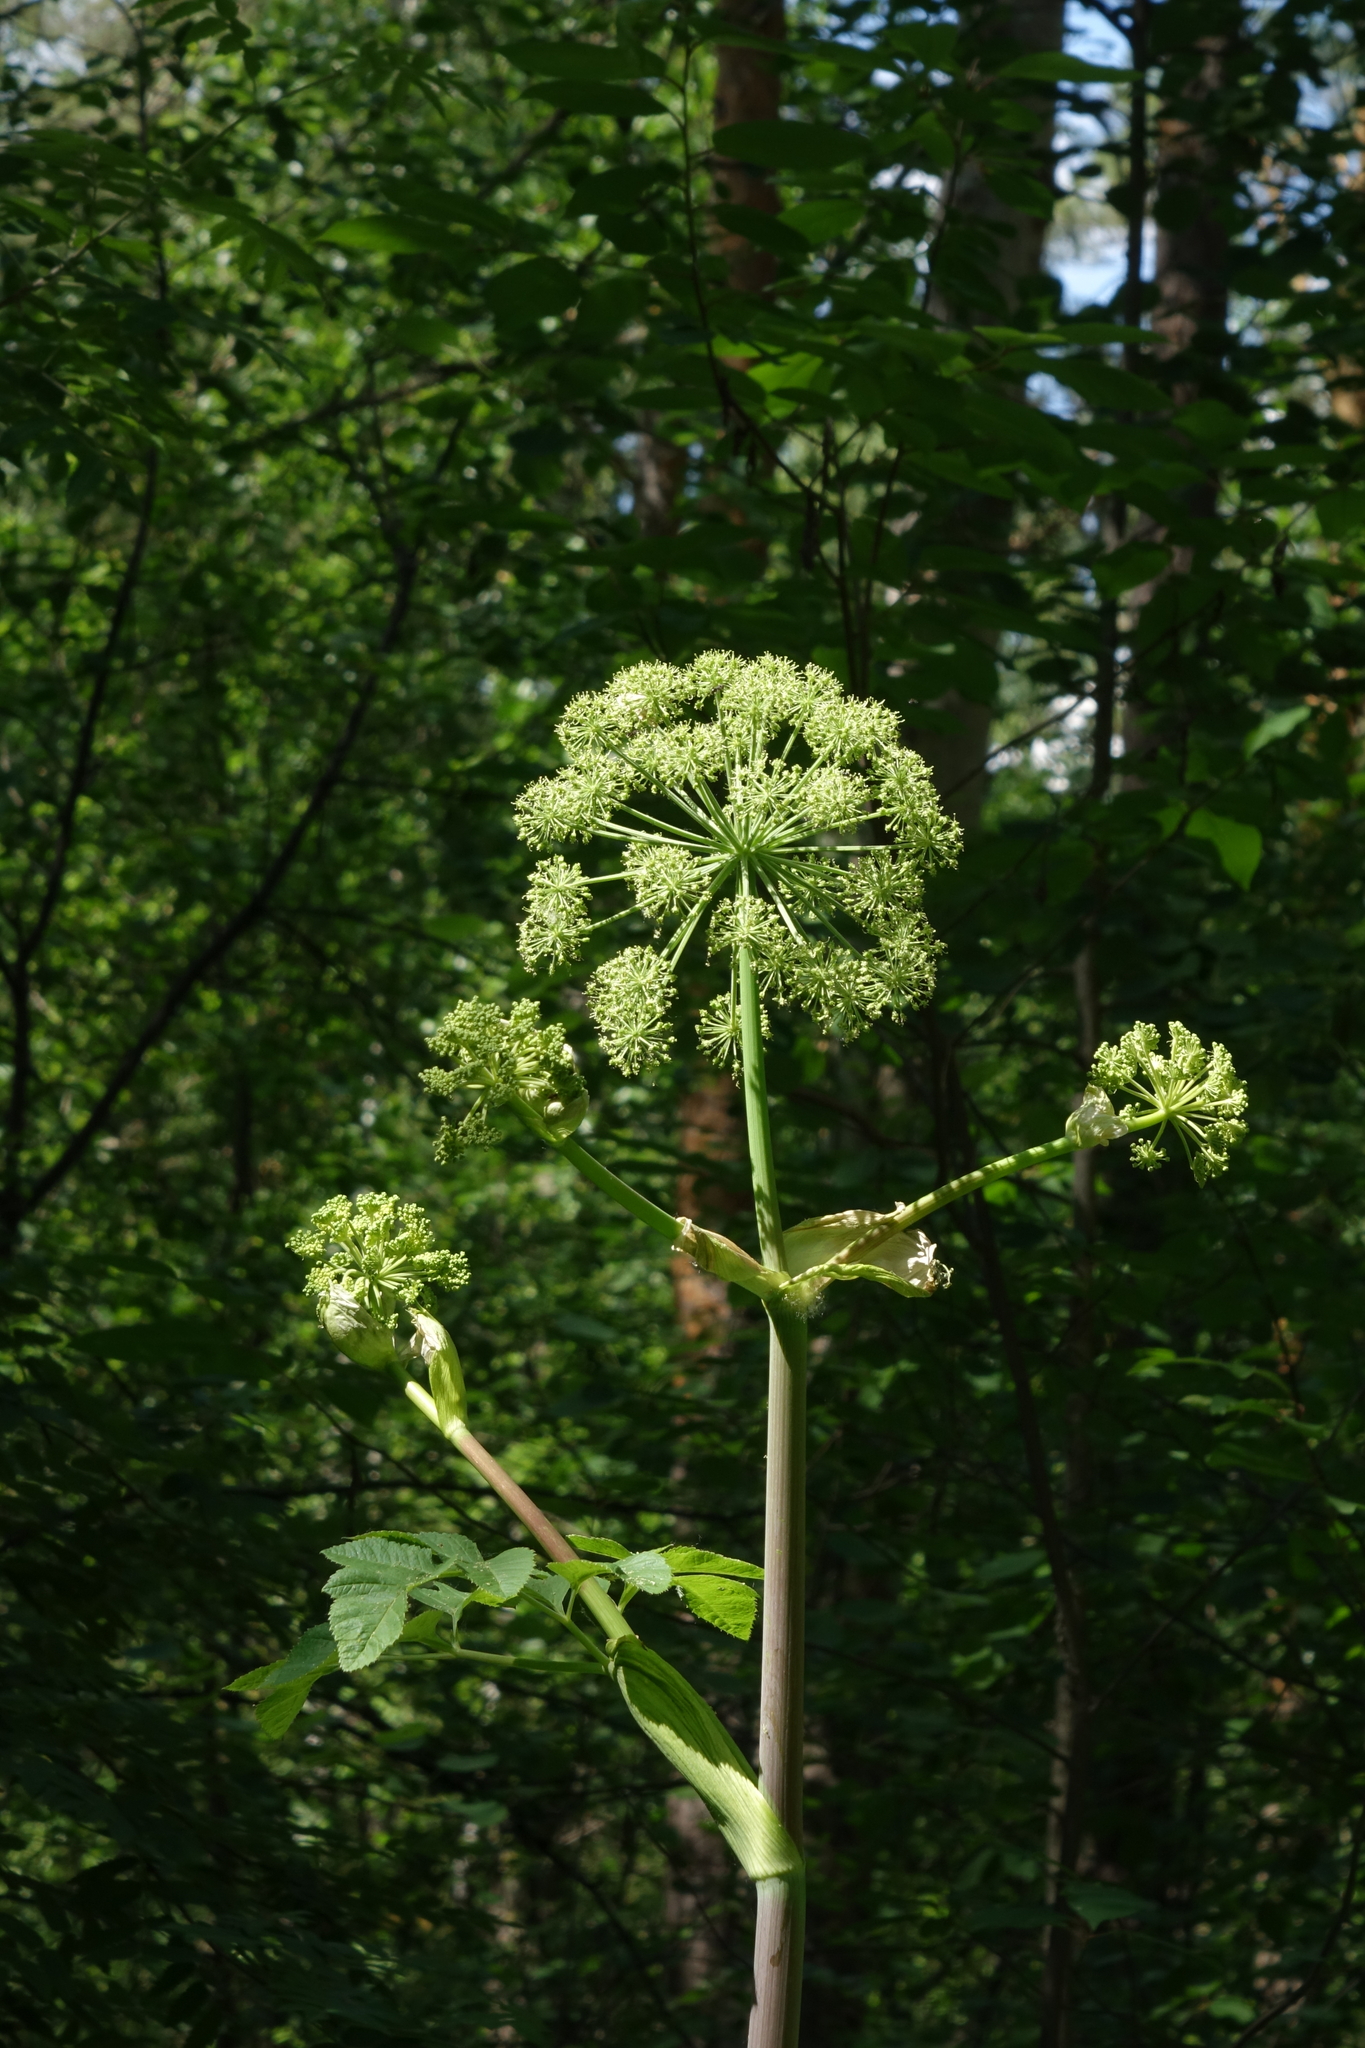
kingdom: Plantae
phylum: Tracheophyta
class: Magnoliopsida
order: Apiales
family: Apiaceae
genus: Angelica
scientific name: Angelica decurrens
